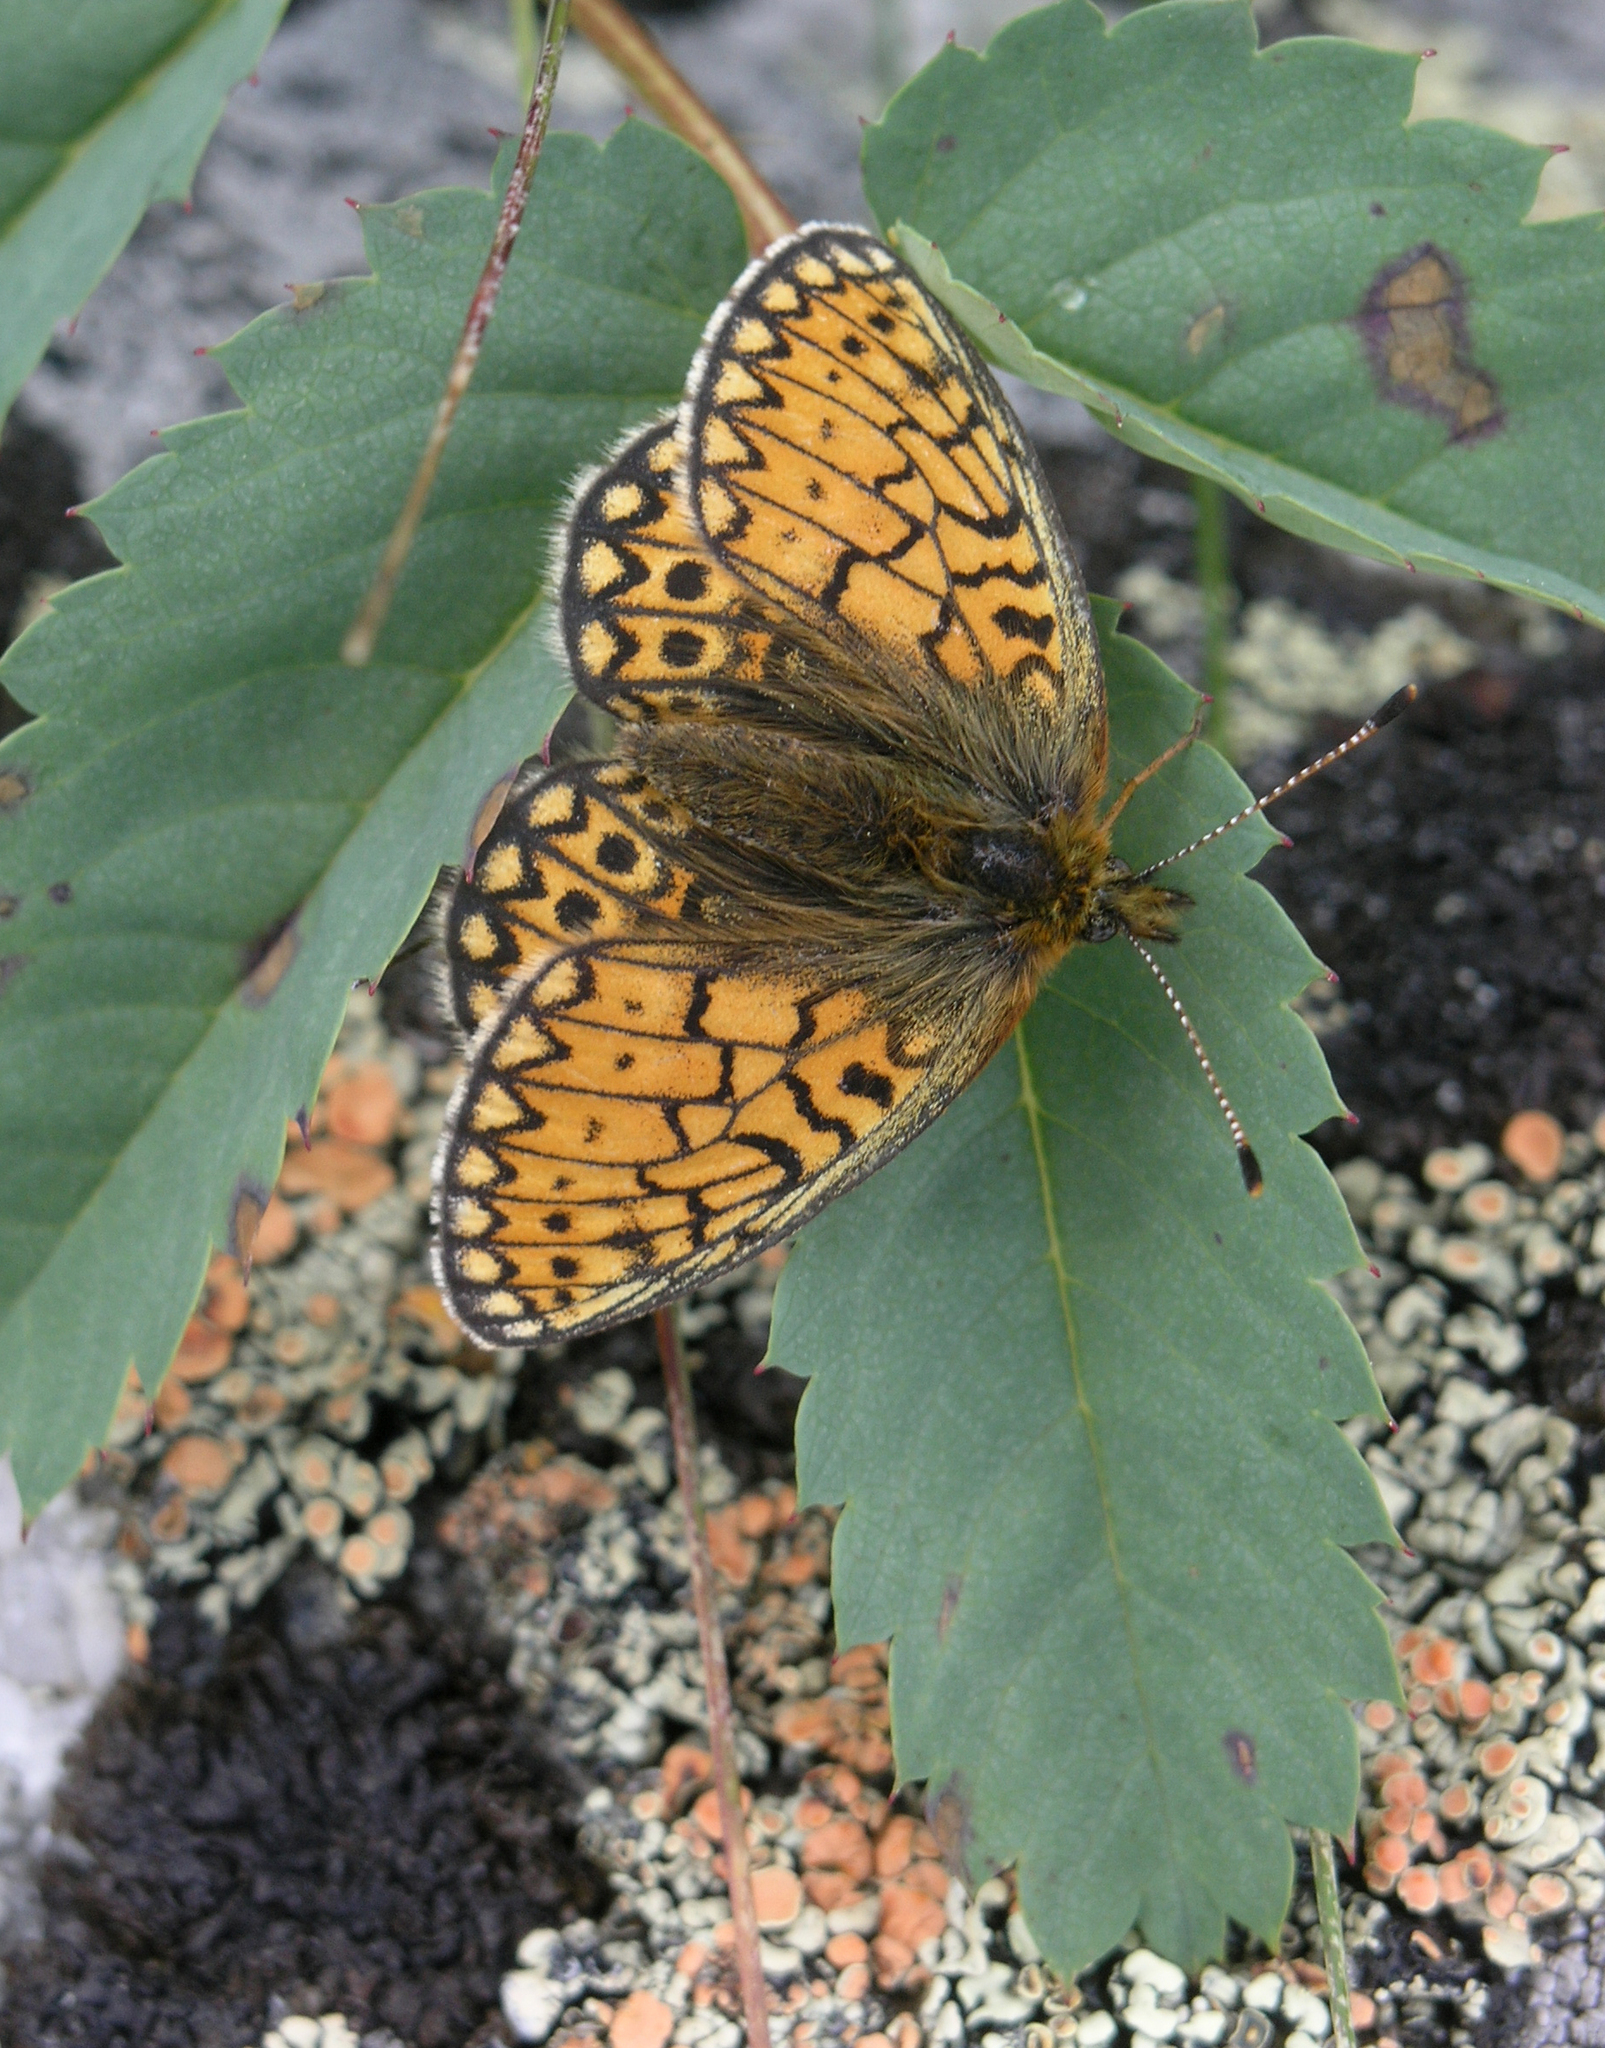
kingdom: Animalia
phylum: Arthropoda
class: Insecta
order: Lepidoptera
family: Nymphalidae
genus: Boloria
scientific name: Boloria eunomia
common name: Bog fritillary
